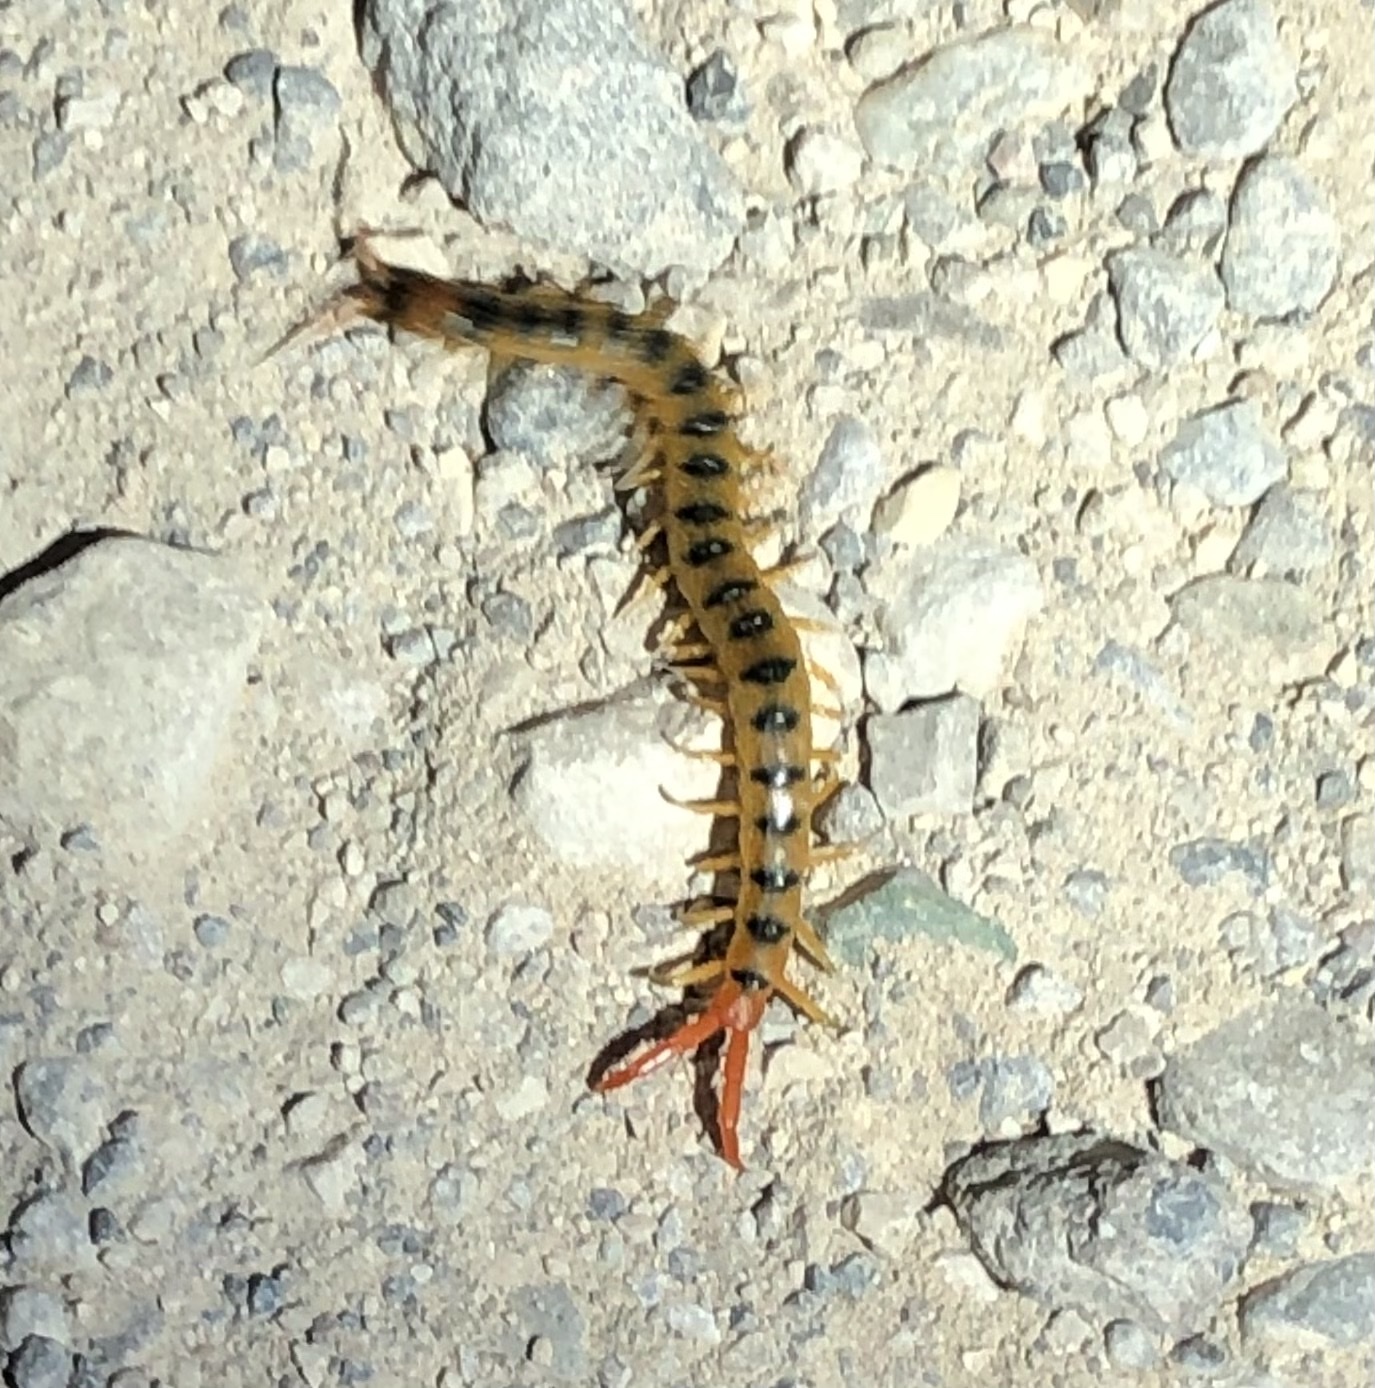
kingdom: Animalia
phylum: Arthropoda
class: Chilopoda
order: Scolopendromorpha
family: Scolopendridae
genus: Scolopendra
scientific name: Scolopendra cingulata
